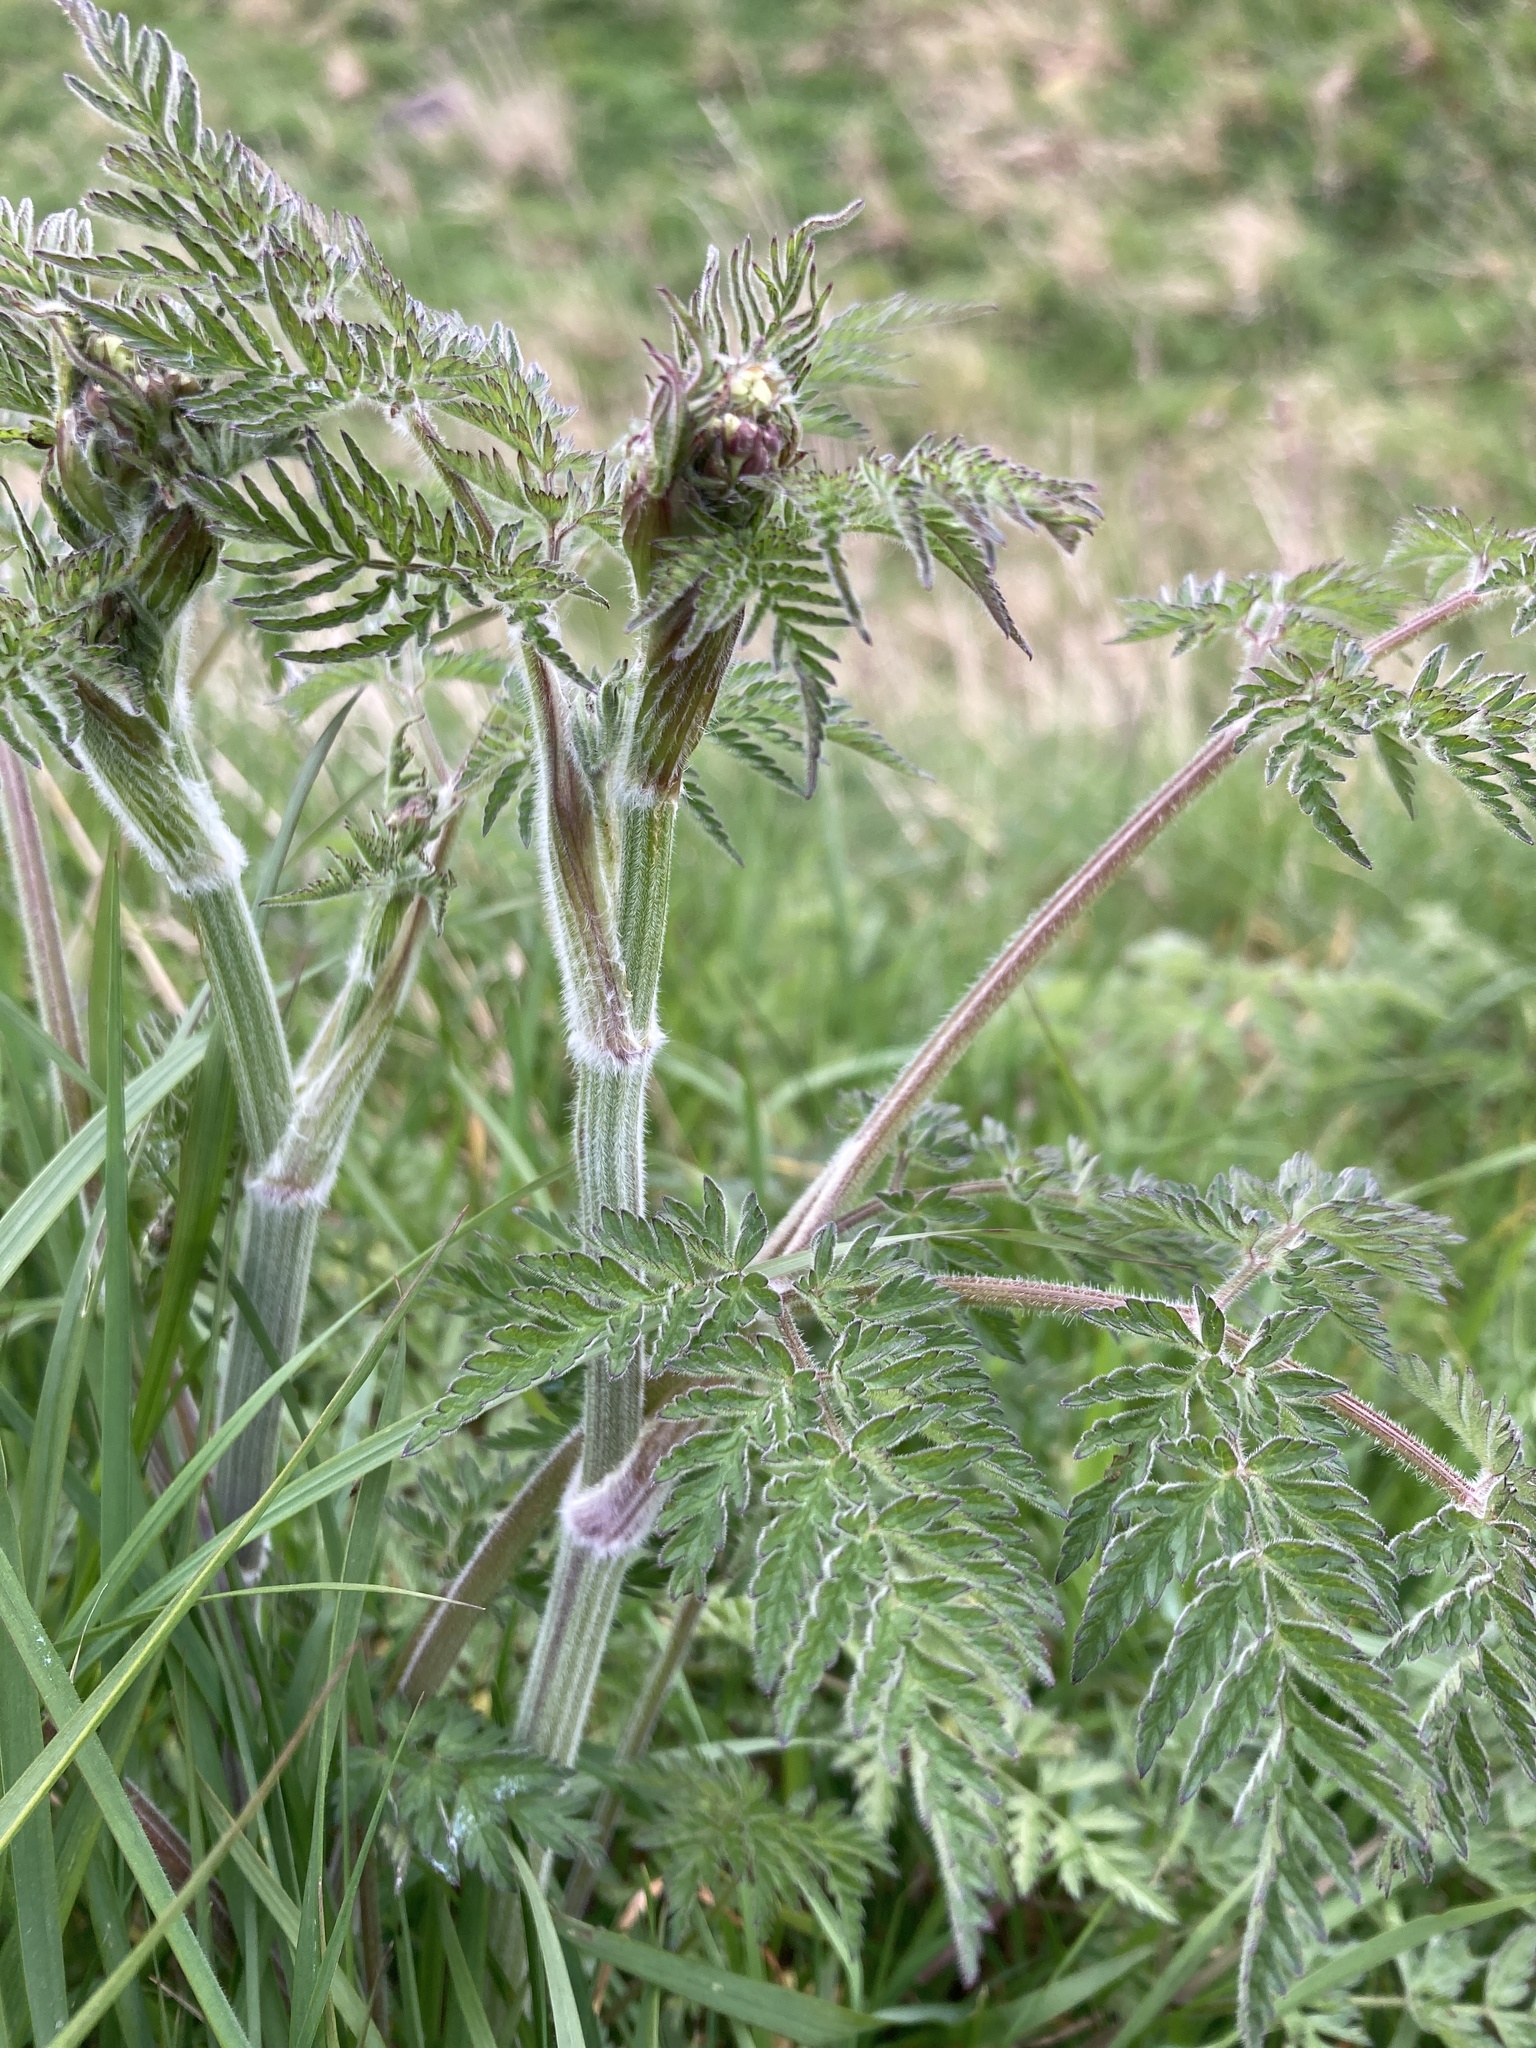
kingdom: Plantae
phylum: Tracheophyta
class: Magnoliopsida
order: Apiales
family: Apiaceae
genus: Anthriscus
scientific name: Anthriscus sylvestris
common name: Cow parsley
